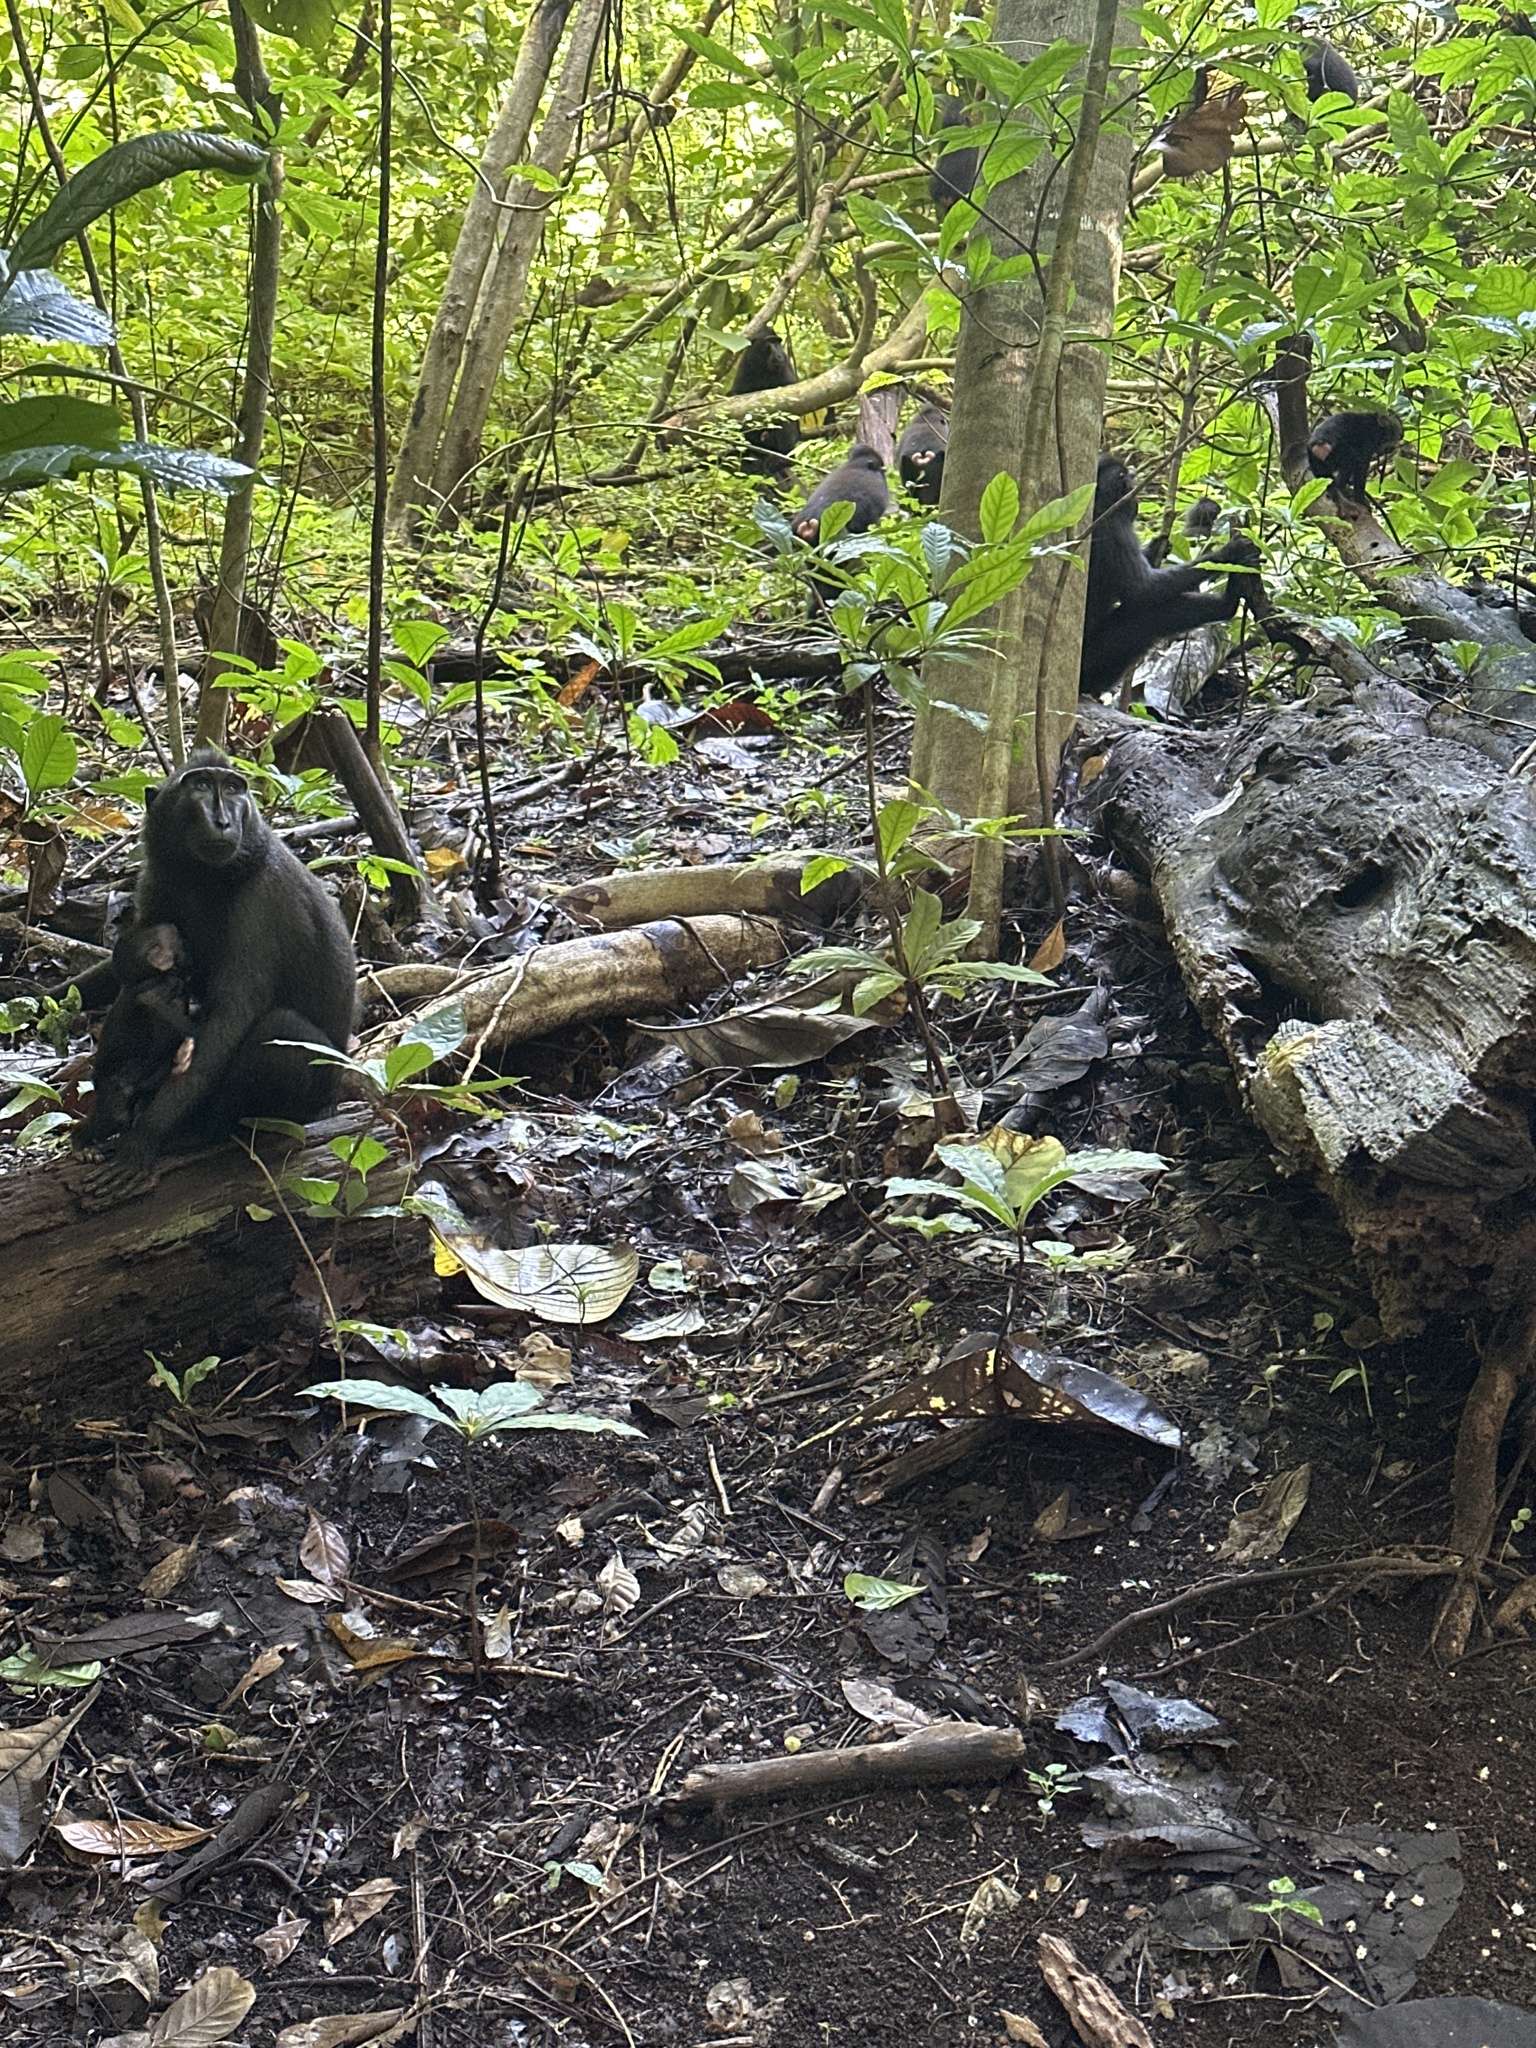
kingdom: Animalia
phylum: Chordata
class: Mammalia
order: Primates
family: Cercopithecidae
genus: Macaca
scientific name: Macaca nigra
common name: Celebes crested macaque
